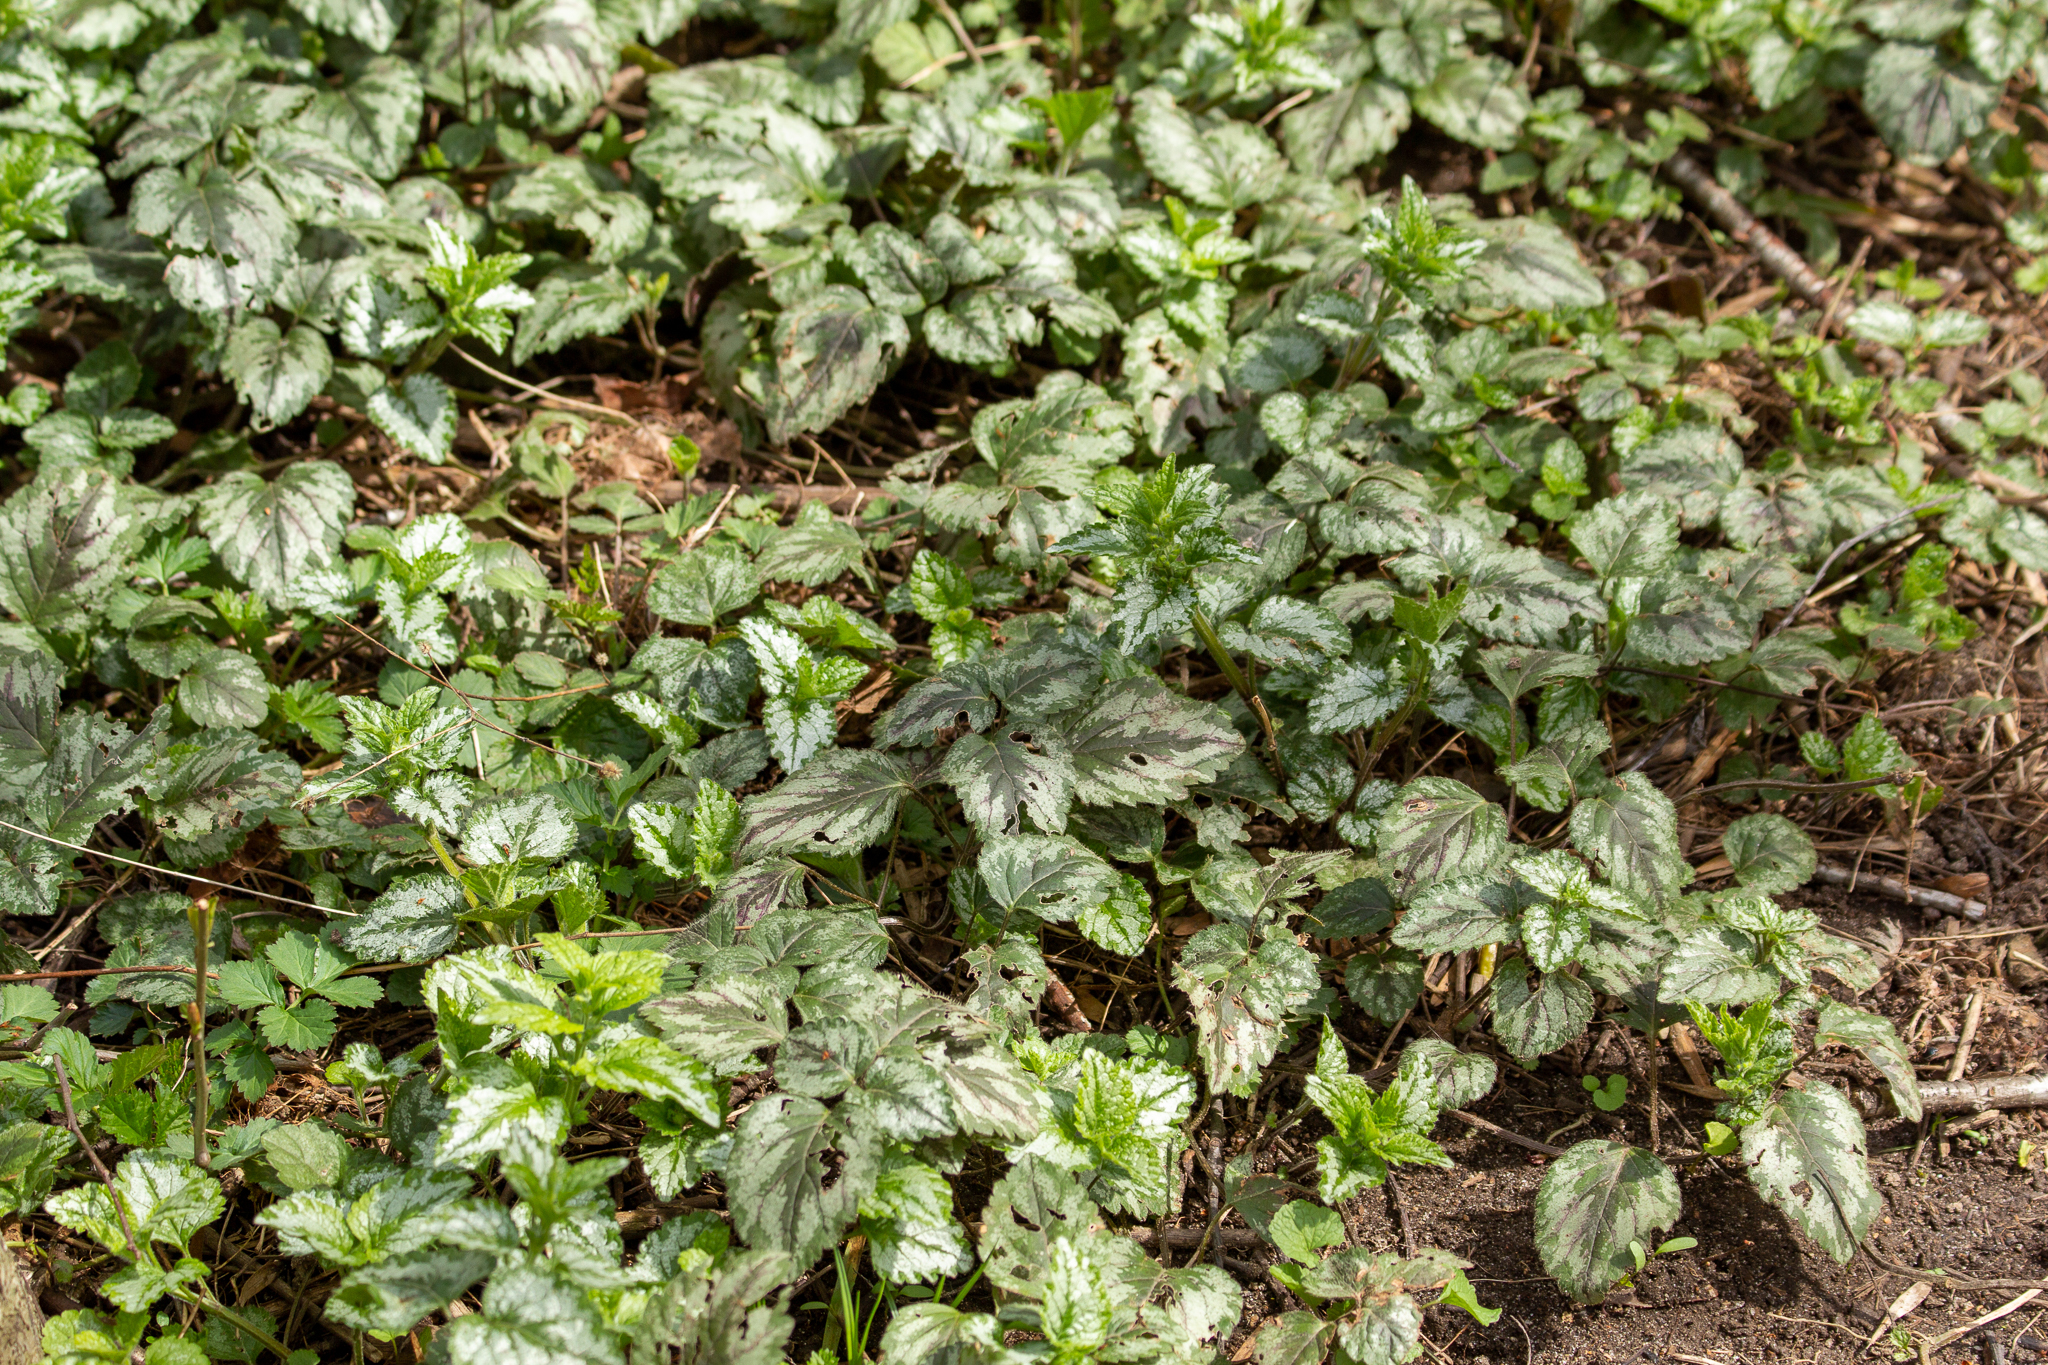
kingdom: Plantae
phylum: Tracheophyta
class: Magnoliopsida
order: Lamiales
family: Lamiaceae
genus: Lamium
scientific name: Lamium galeobdolon
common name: Yellow archangel
